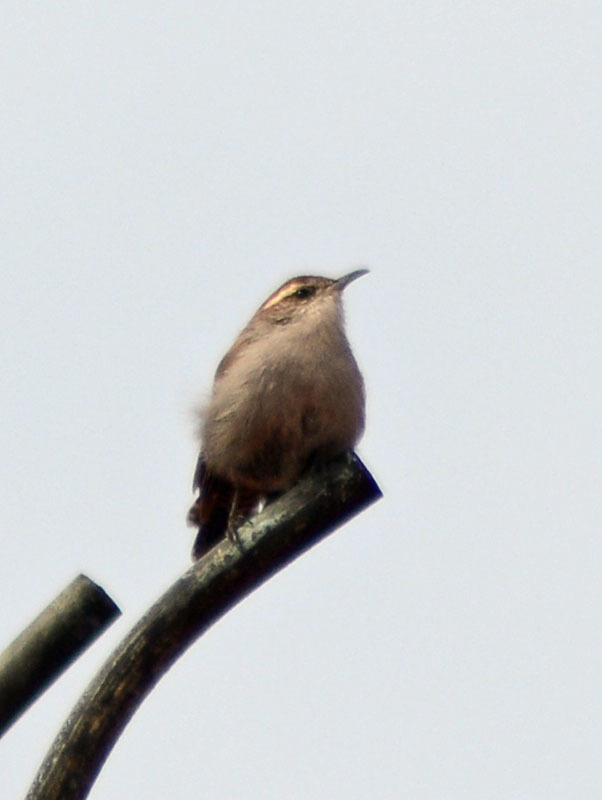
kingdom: Animalia
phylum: Chordata
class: Aves
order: Passeriformes
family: Troglodytidae
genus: Thryomanes
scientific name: Thryomanes bewickii
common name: Bewick's wren
